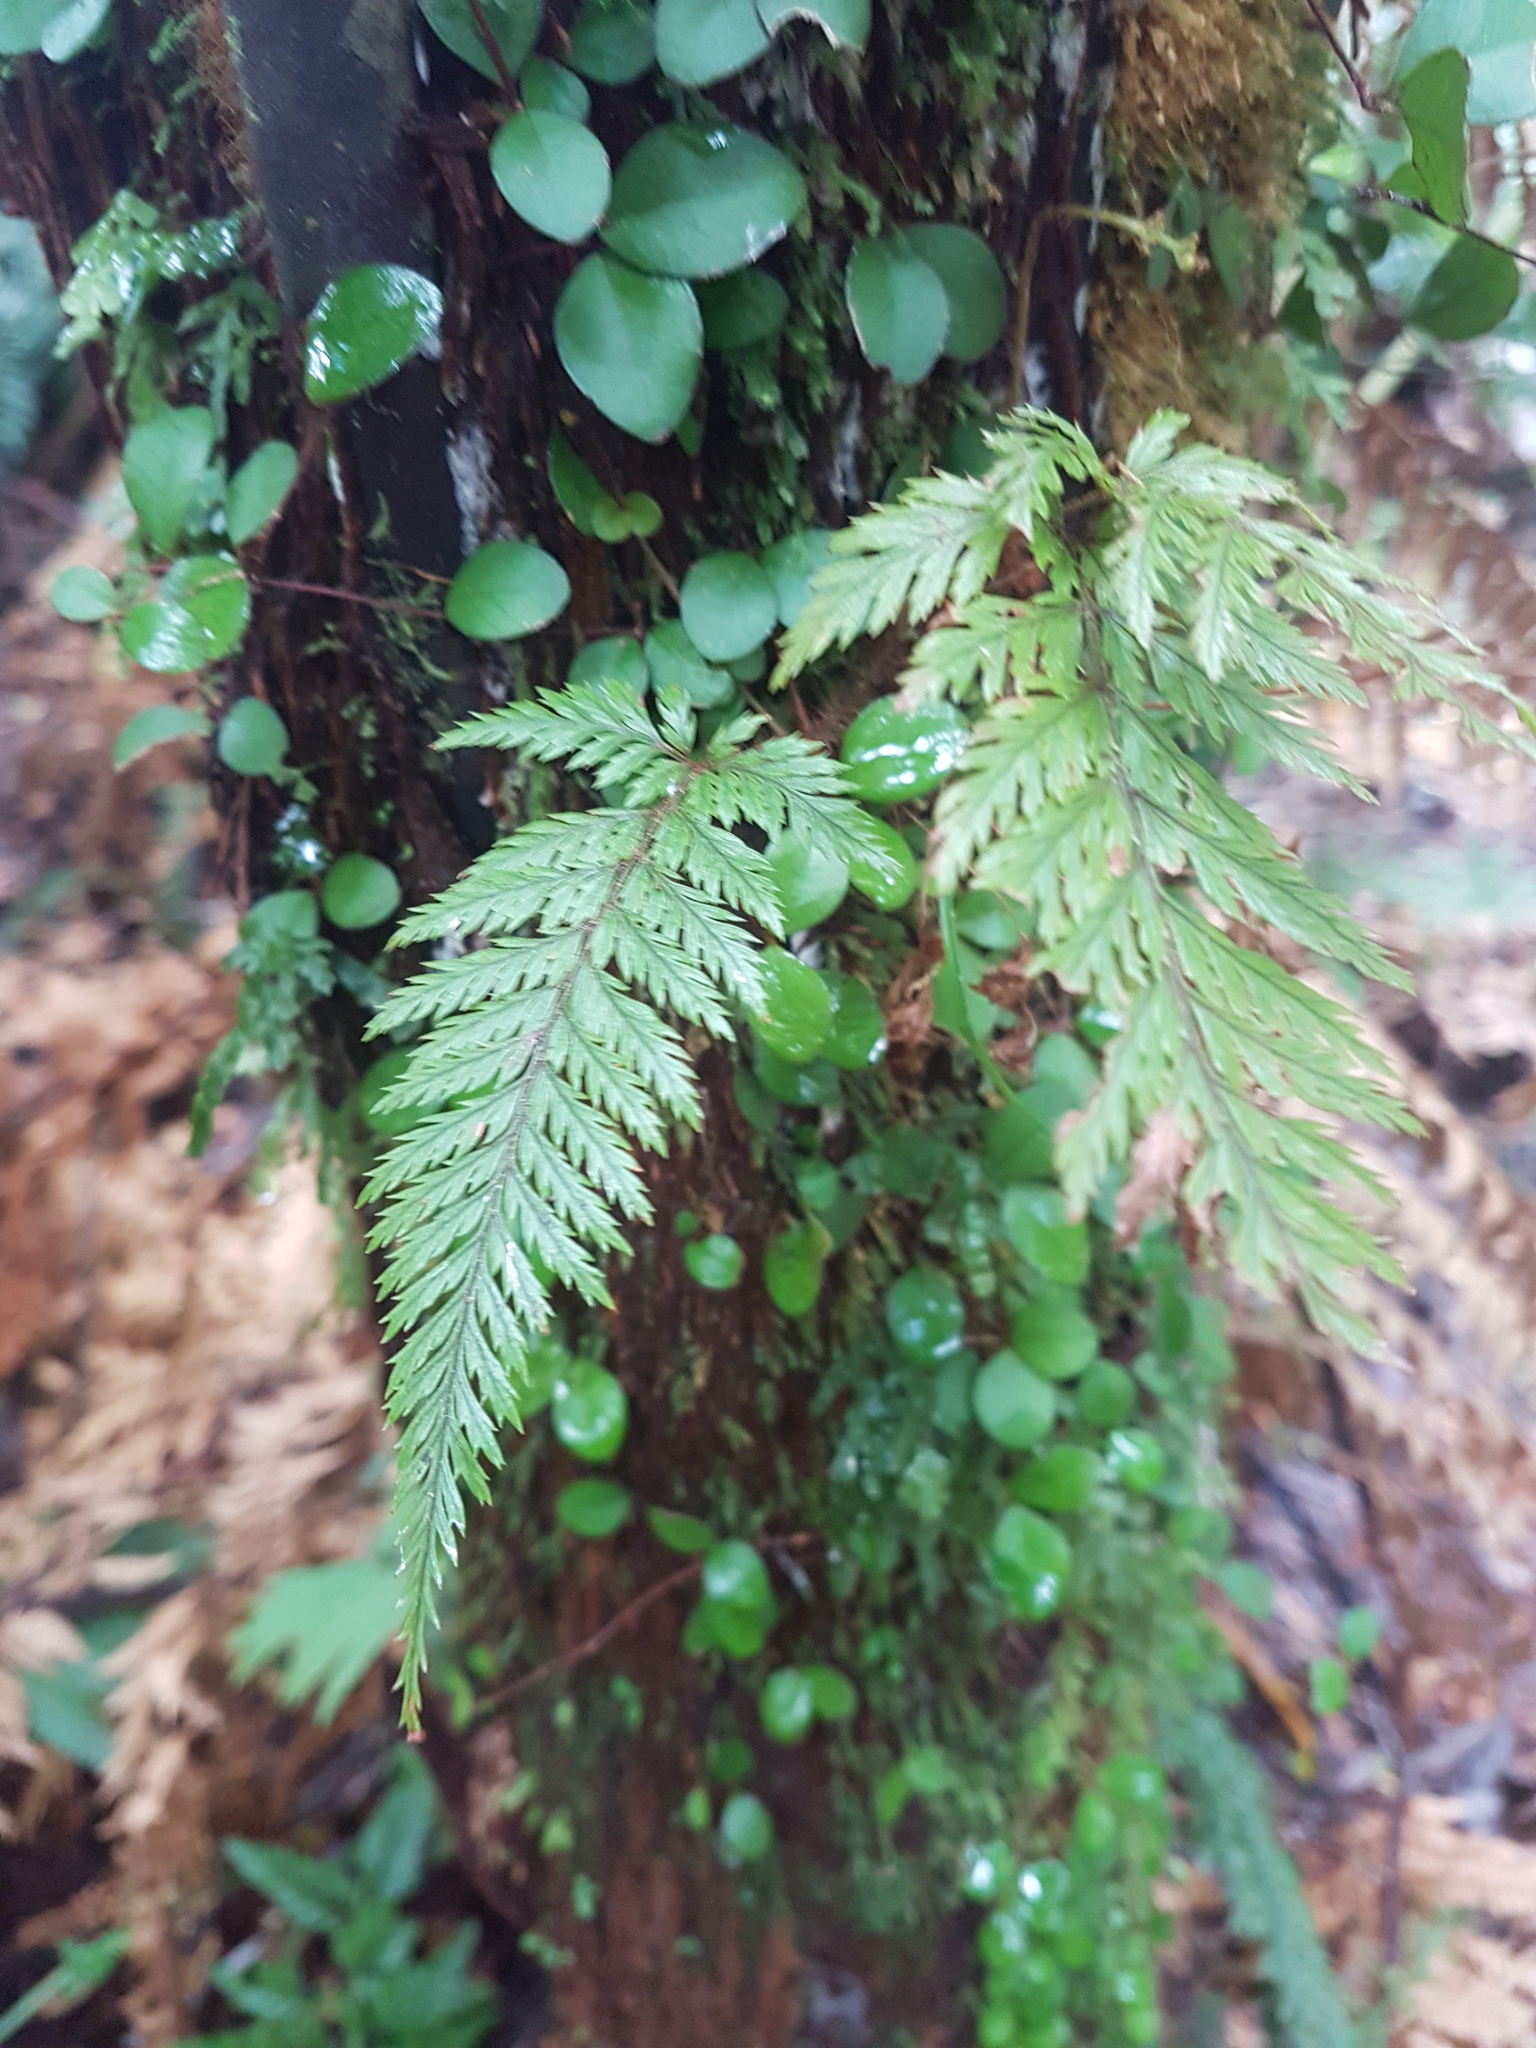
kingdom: Plantae
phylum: Tracheophyta
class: Polypodiopsida
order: Polypodiales
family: Dryopteridaceae
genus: Parapolystichum
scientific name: Parapolystichum glabellum
